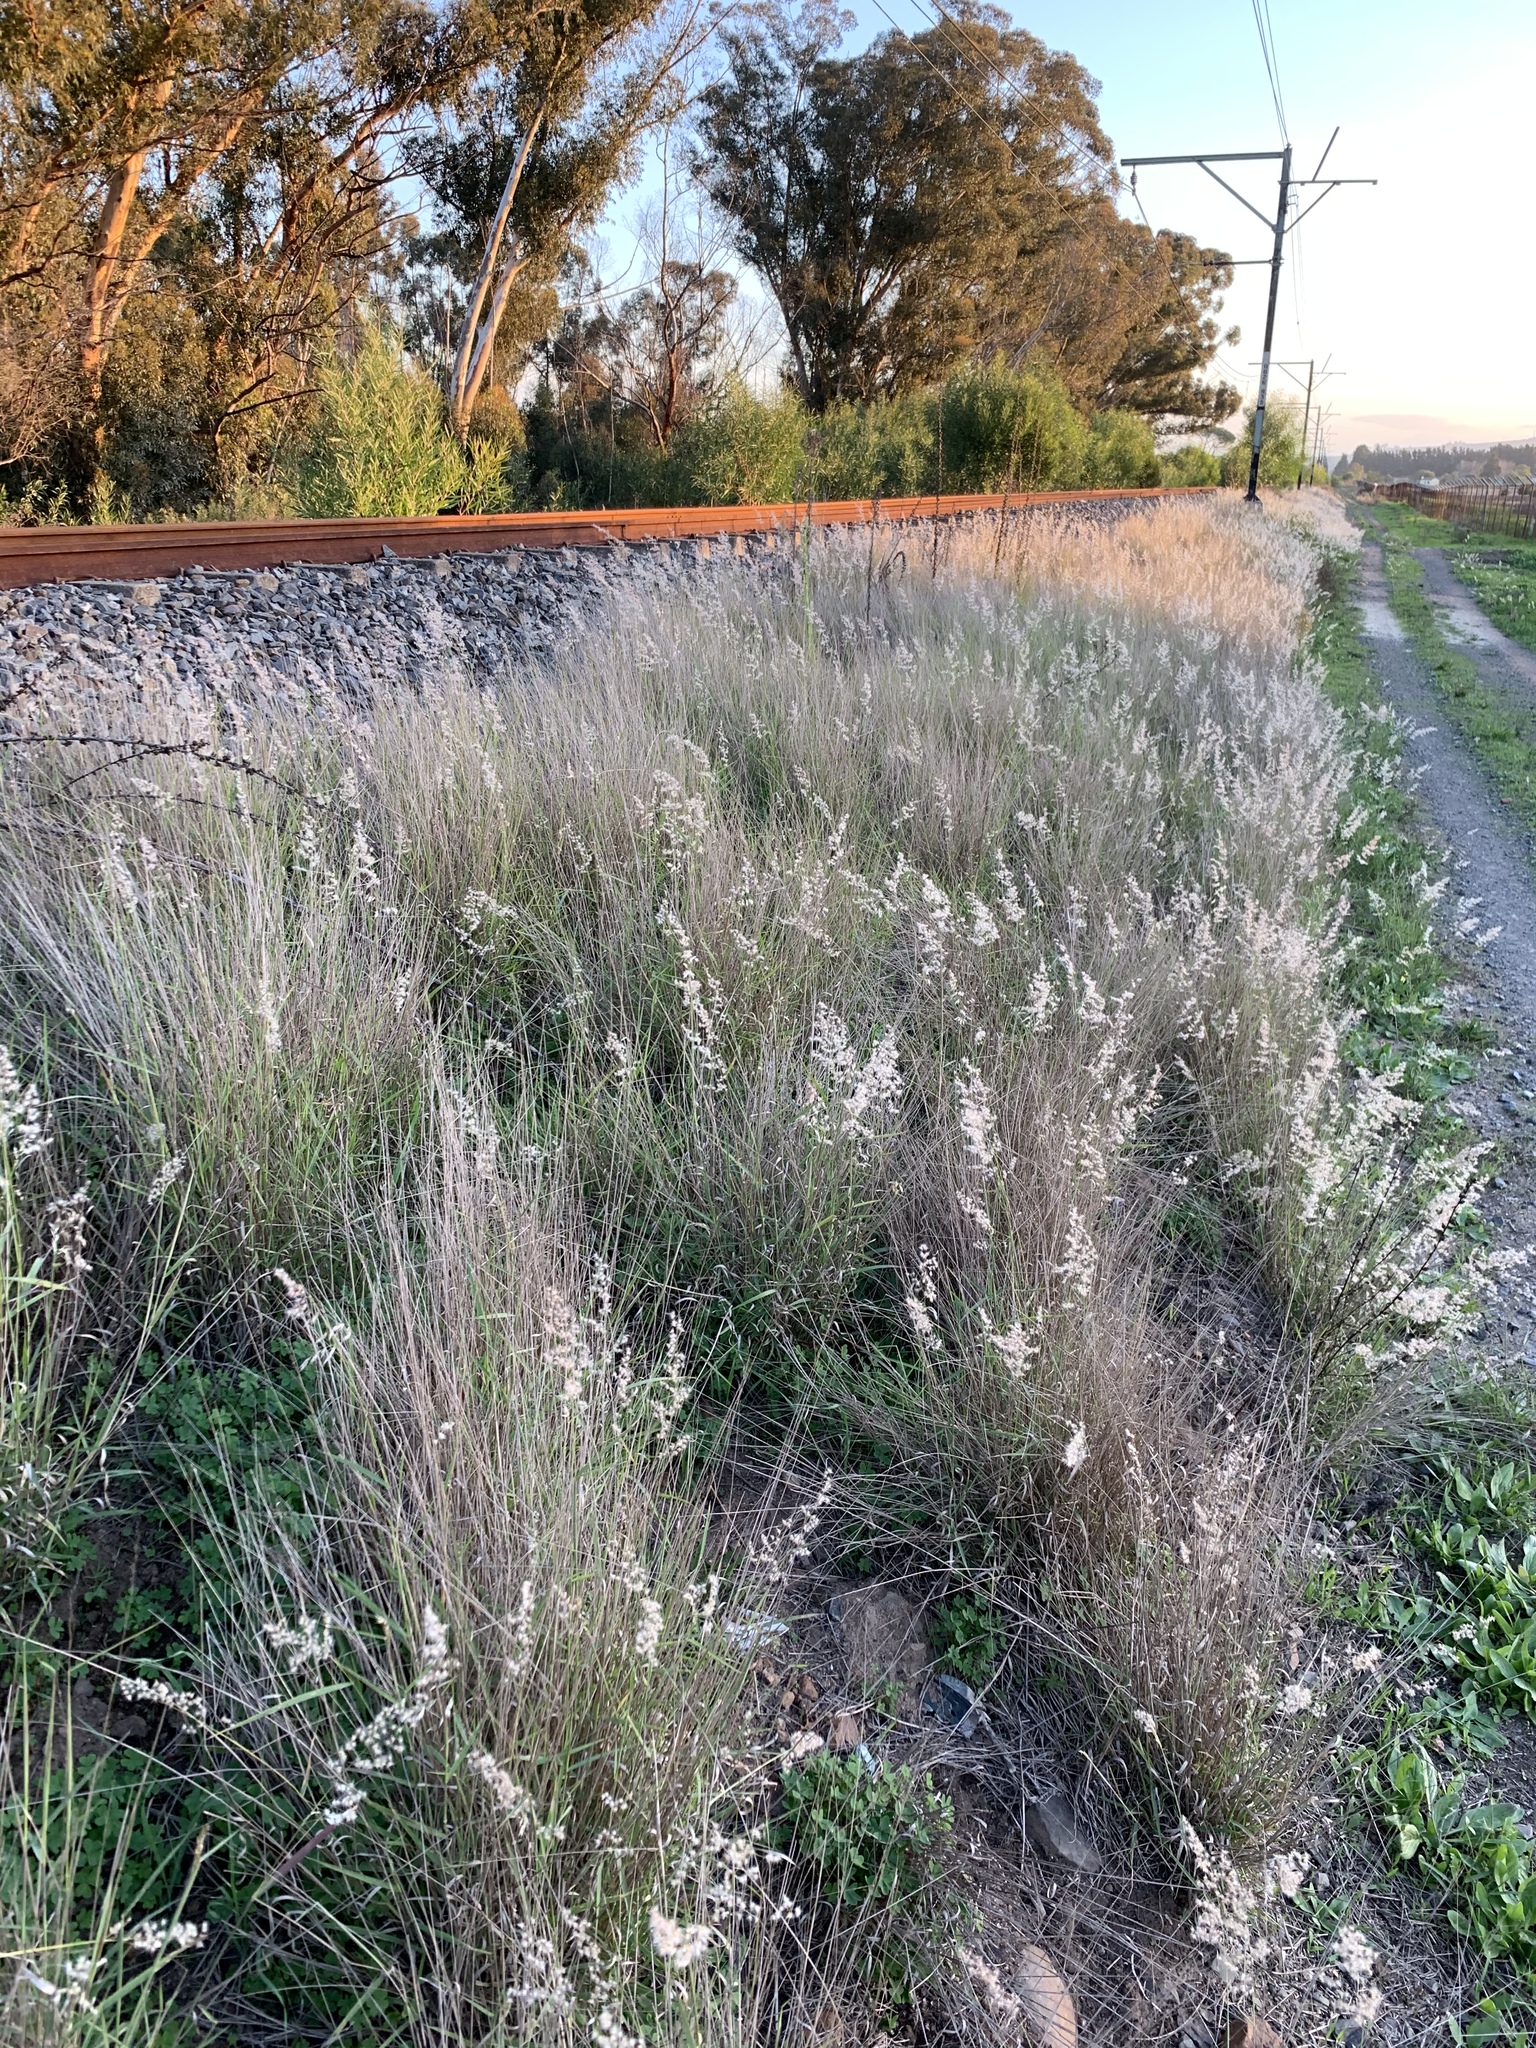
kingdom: Plantae
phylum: Tracheophyta
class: Liliopsida
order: Poales
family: Poaceae
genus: Melinis
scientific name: Melinis repens
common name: Rose natal grass
